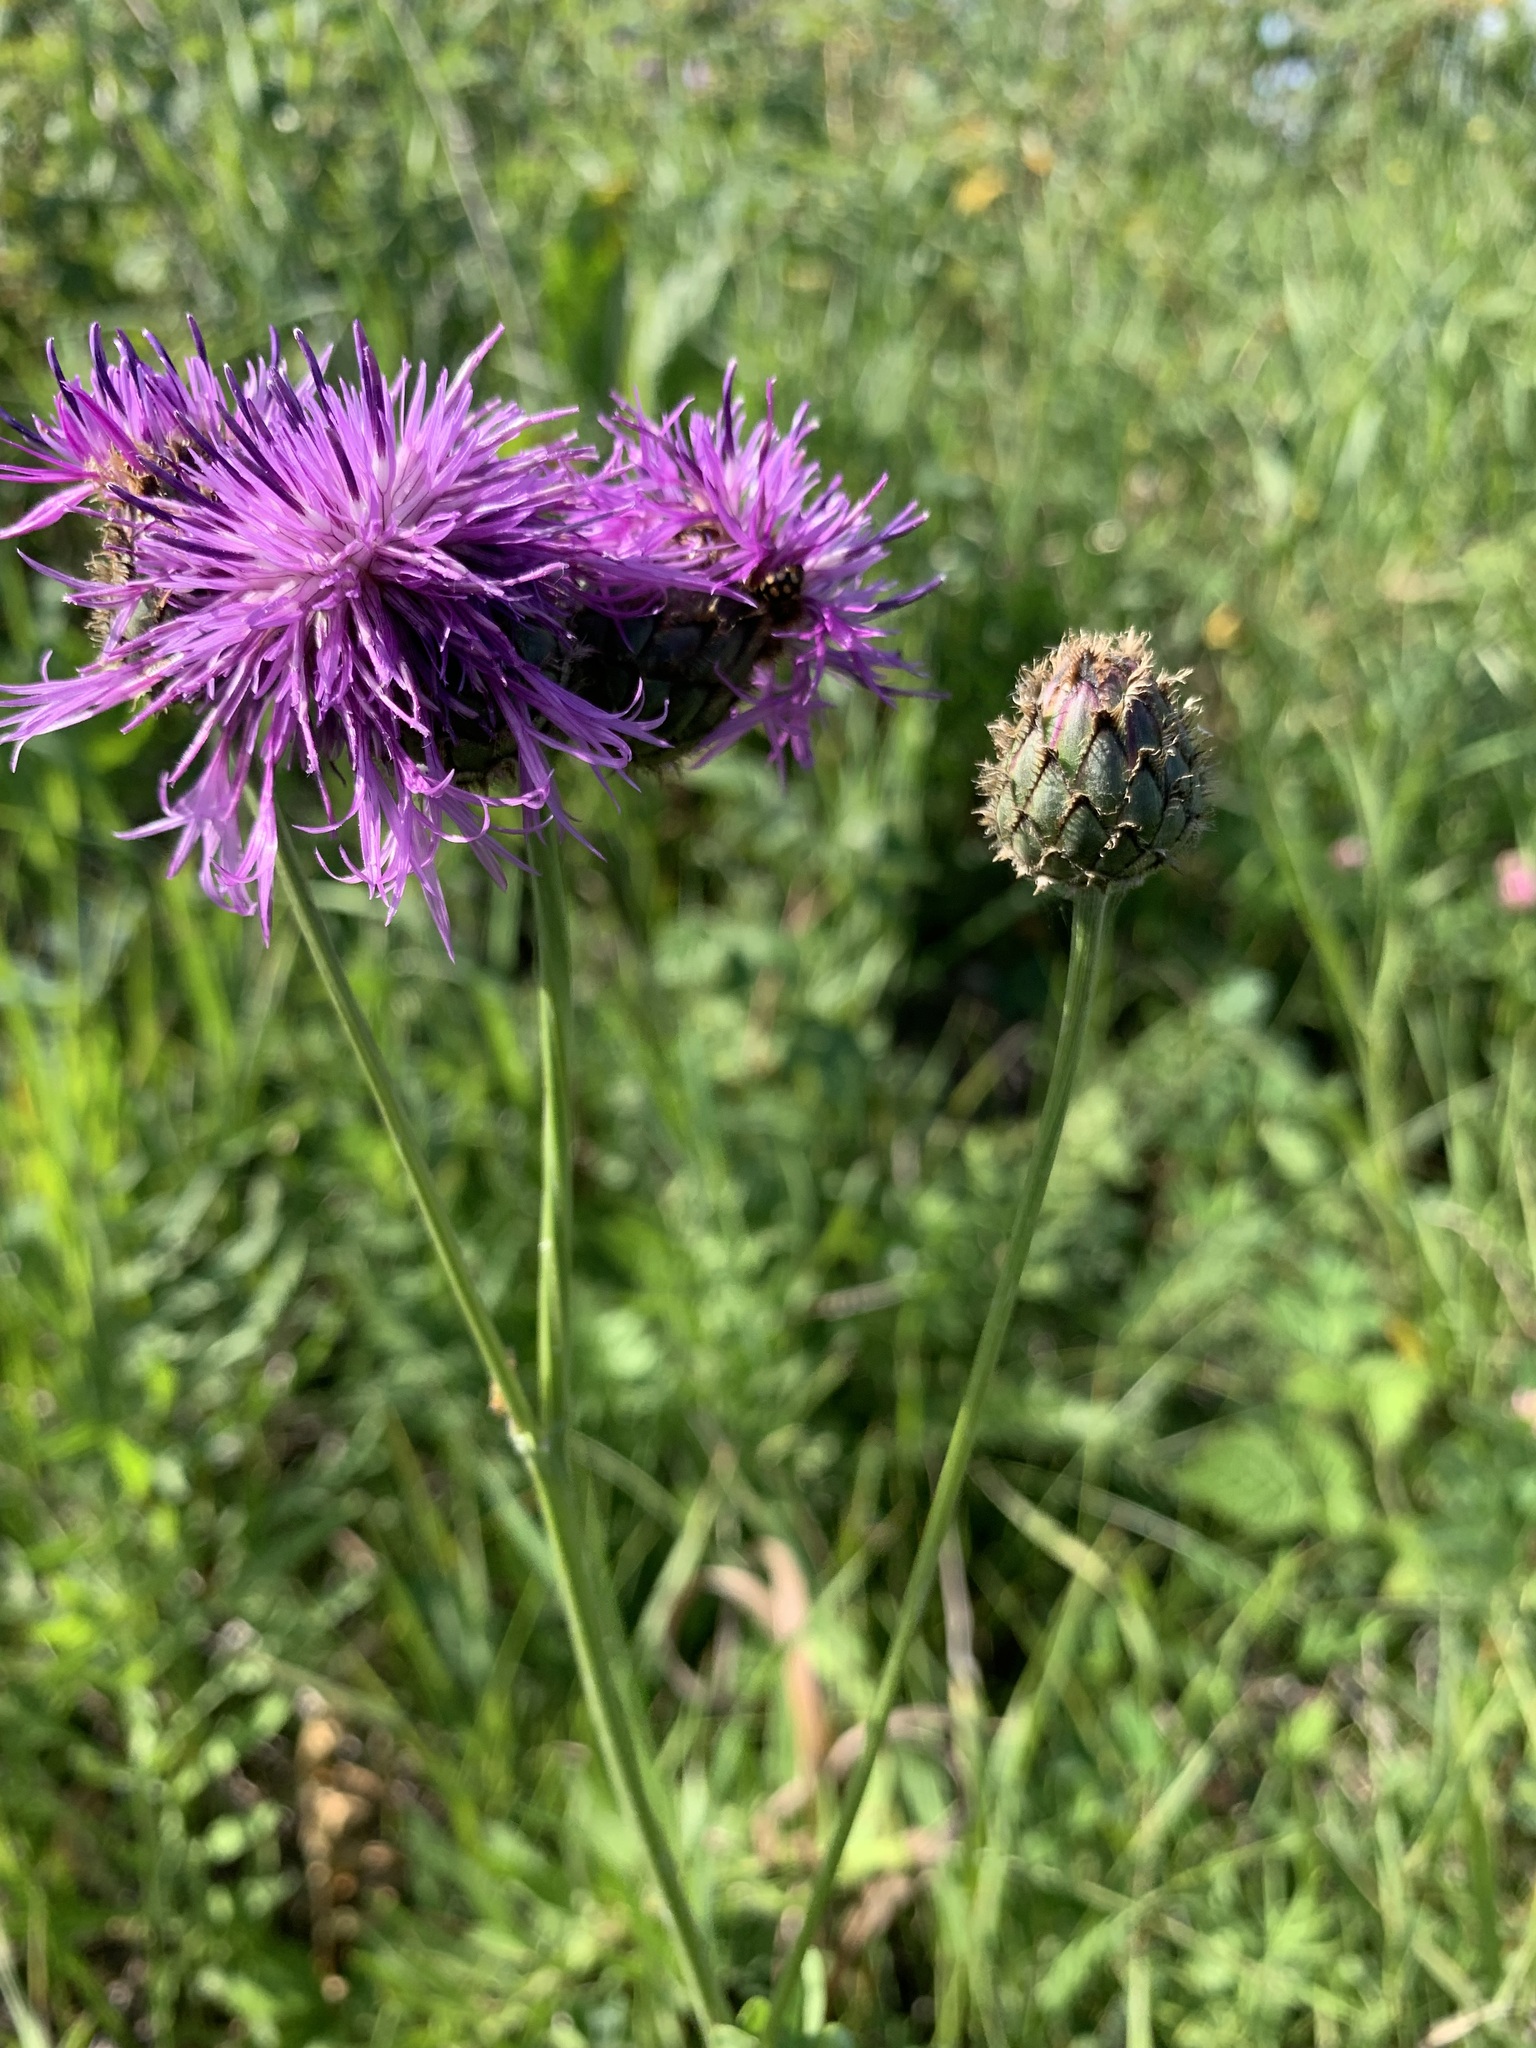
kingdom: Plantae
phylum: Tracheophyta
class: Magnoliopsida
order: Asterales
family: Asteraceae
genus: Centaurea
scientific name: Centaurea scabiosa
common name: Greater knapweed
